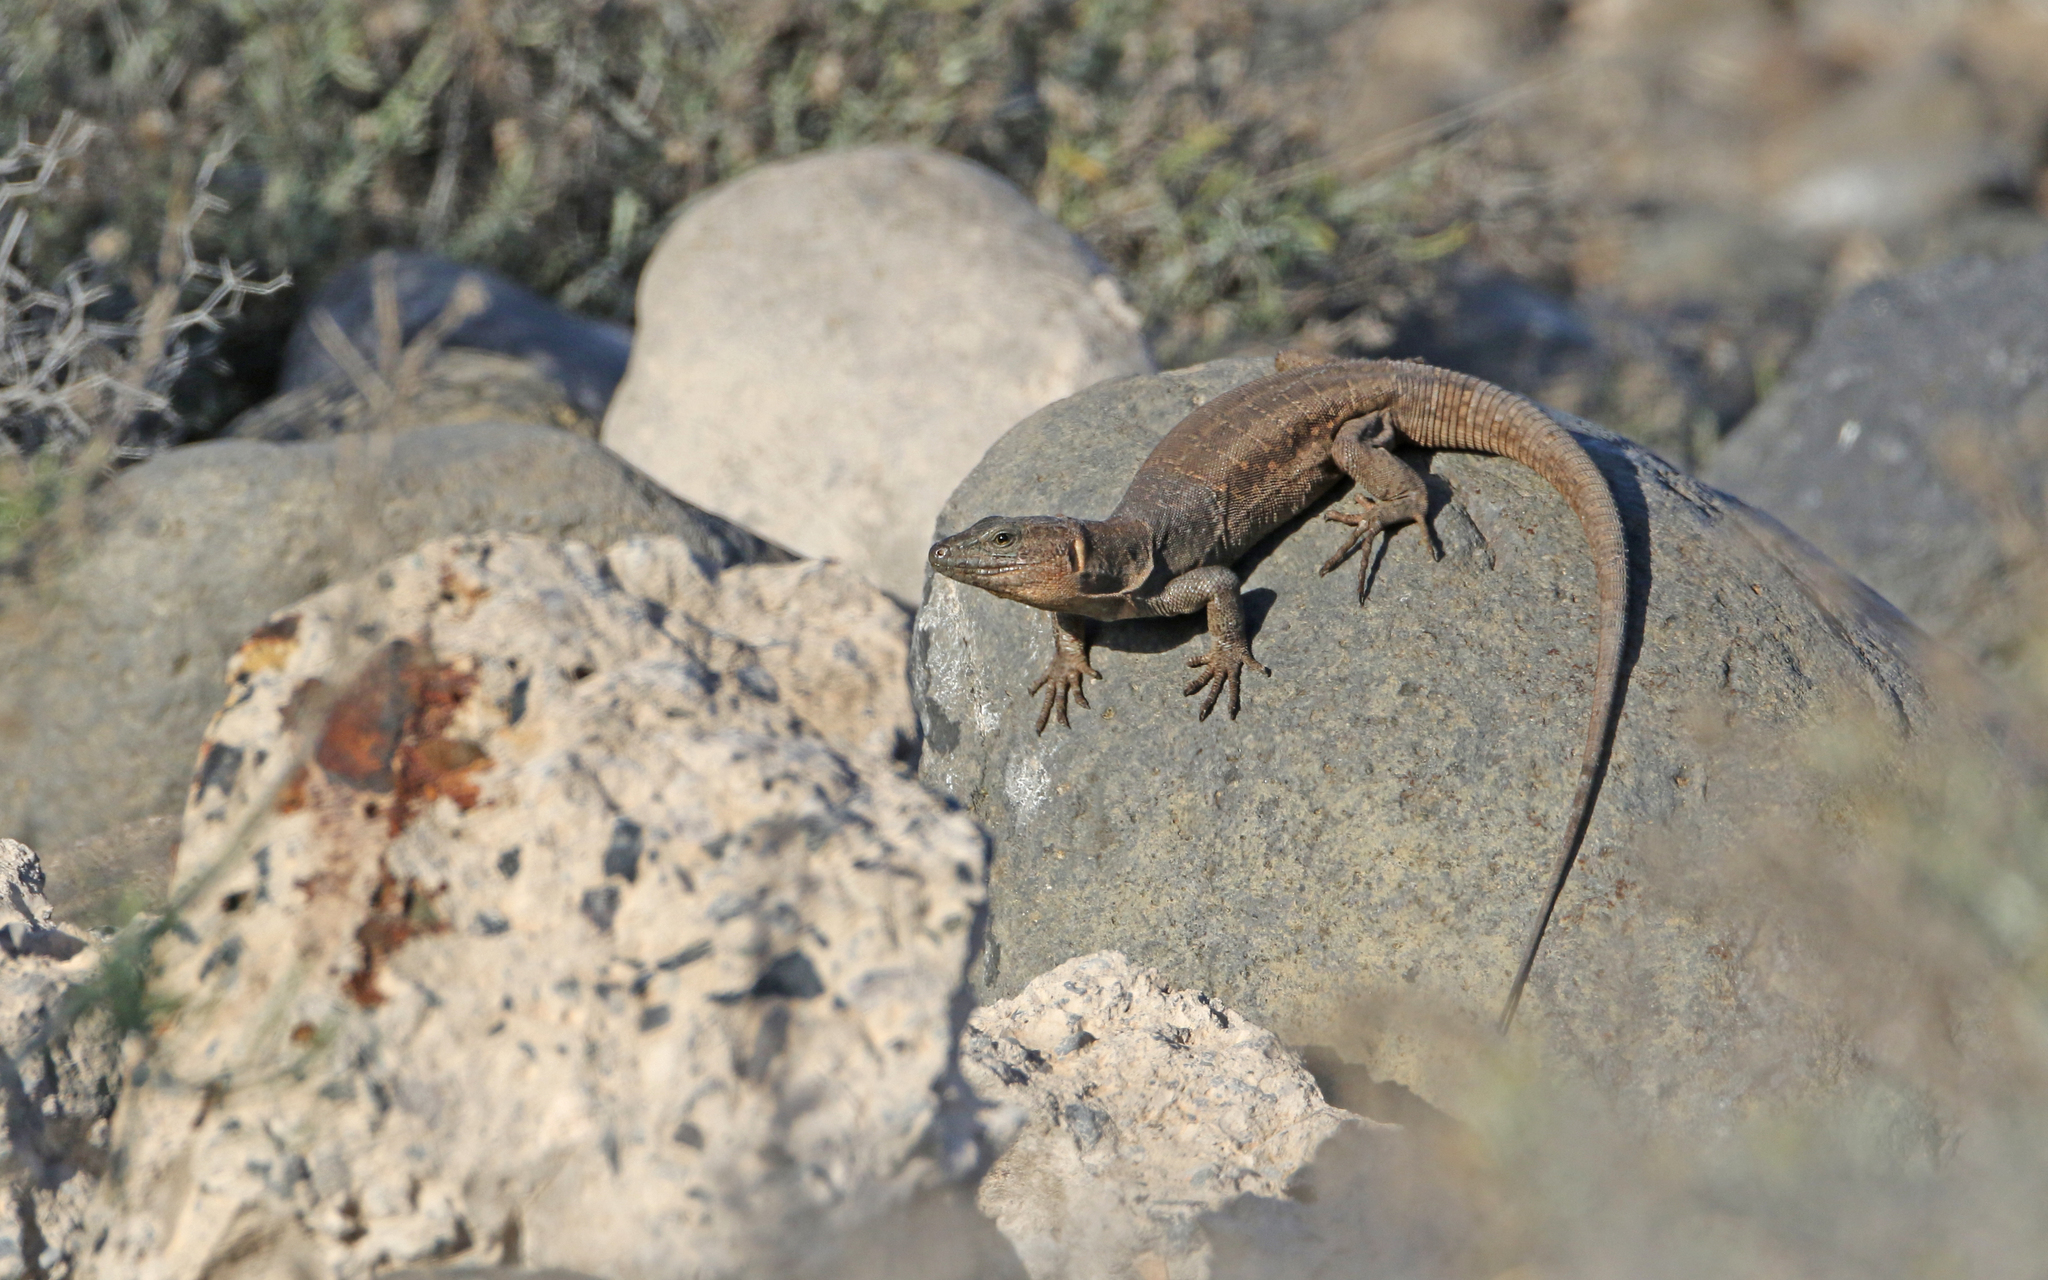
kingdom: Animalia
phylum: Chordata
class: Squamata
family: Lacertidae
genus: Gallotia
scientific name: Gallotia stehlini
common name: Gran canaria giant lizard
